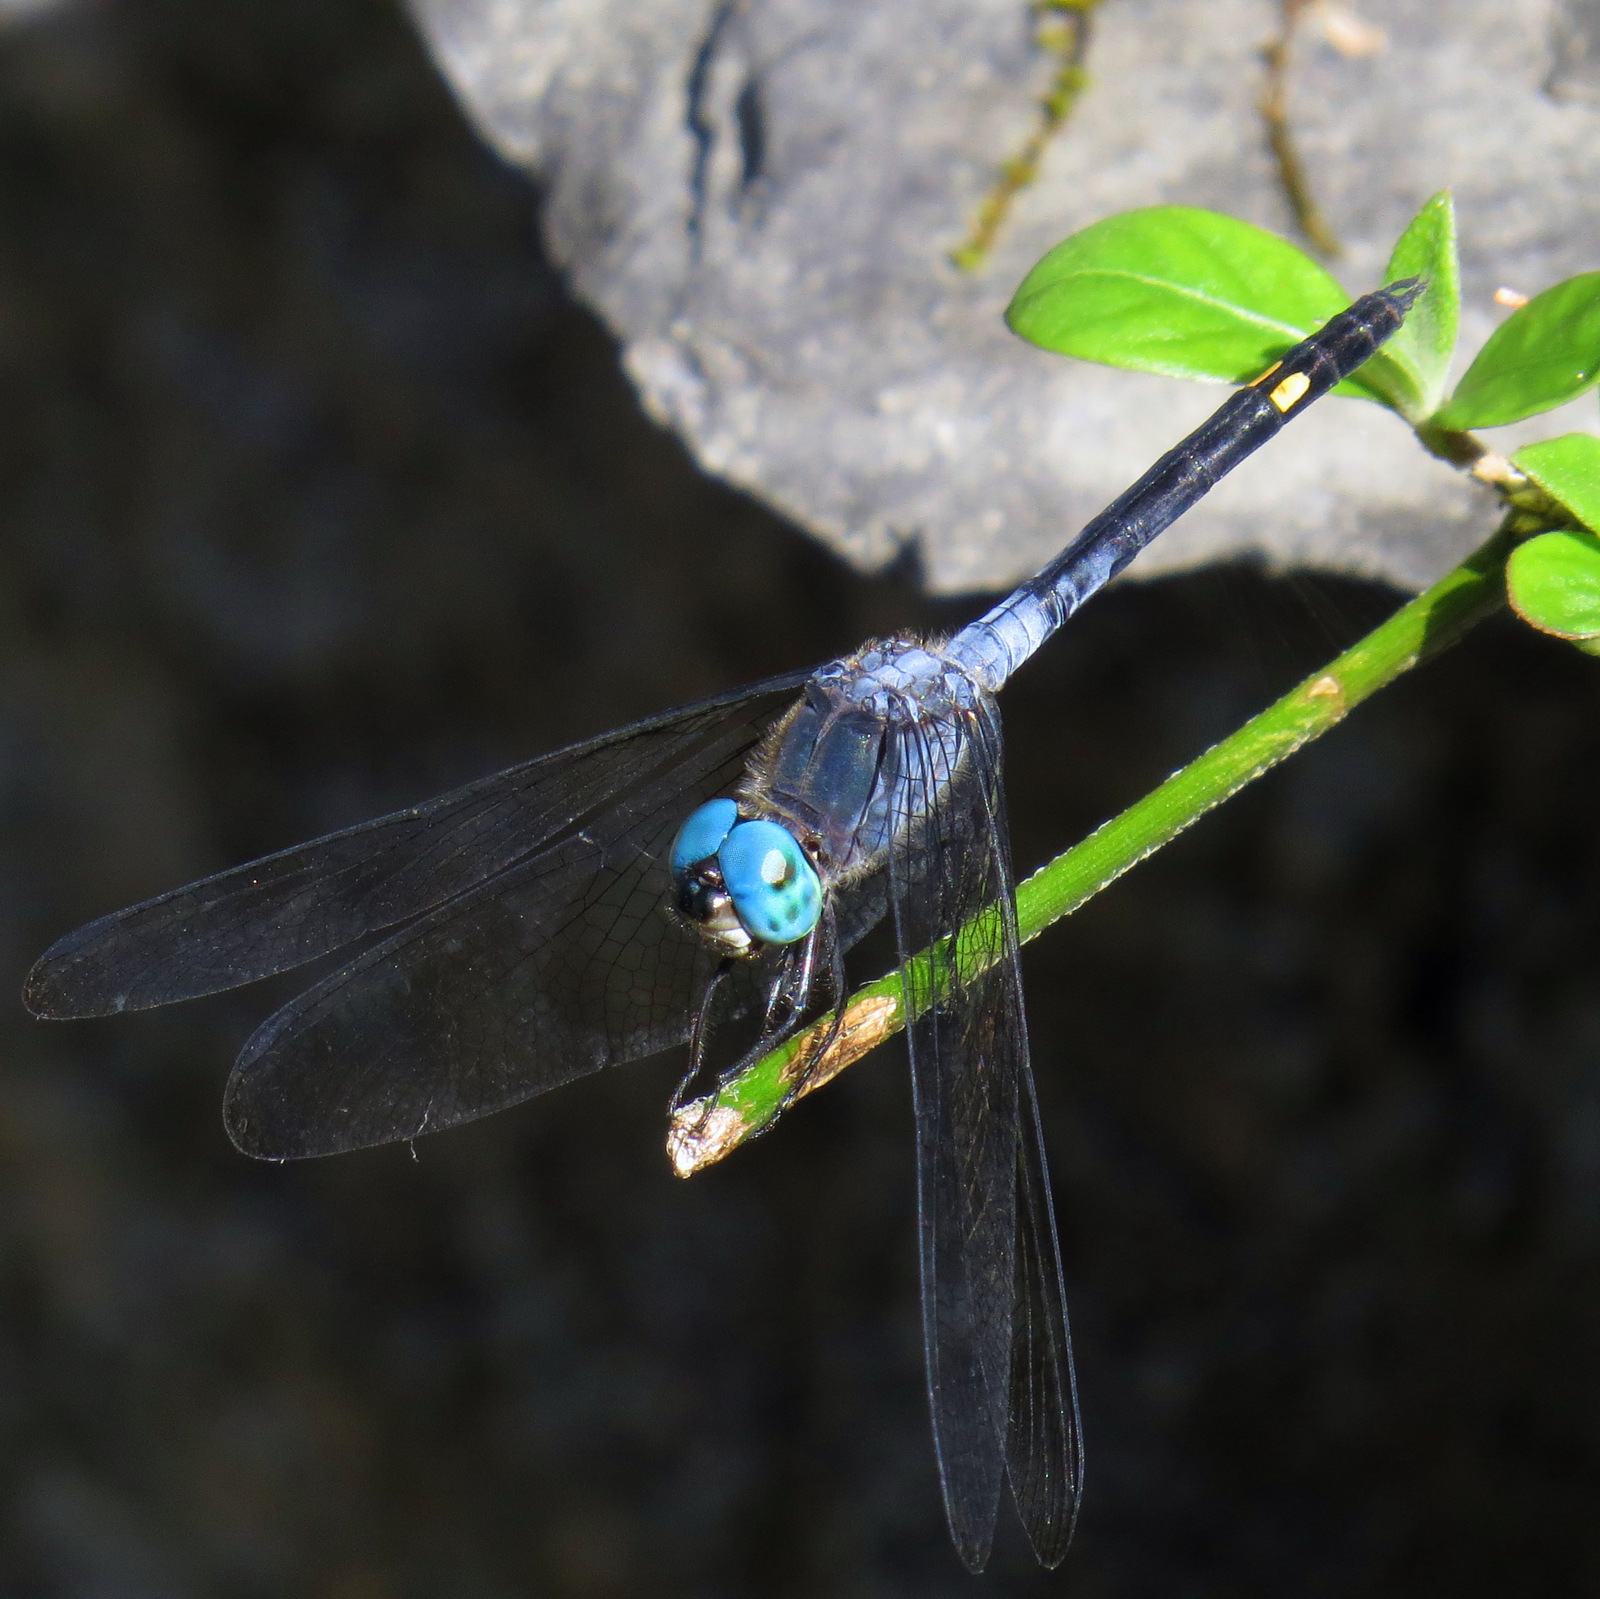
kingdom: Animalia
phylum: Arthropoda
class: Insecta
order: Odonata
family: Libellulidae
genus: Micrathyria
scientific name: Micrathyria atra
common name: Black dasher
